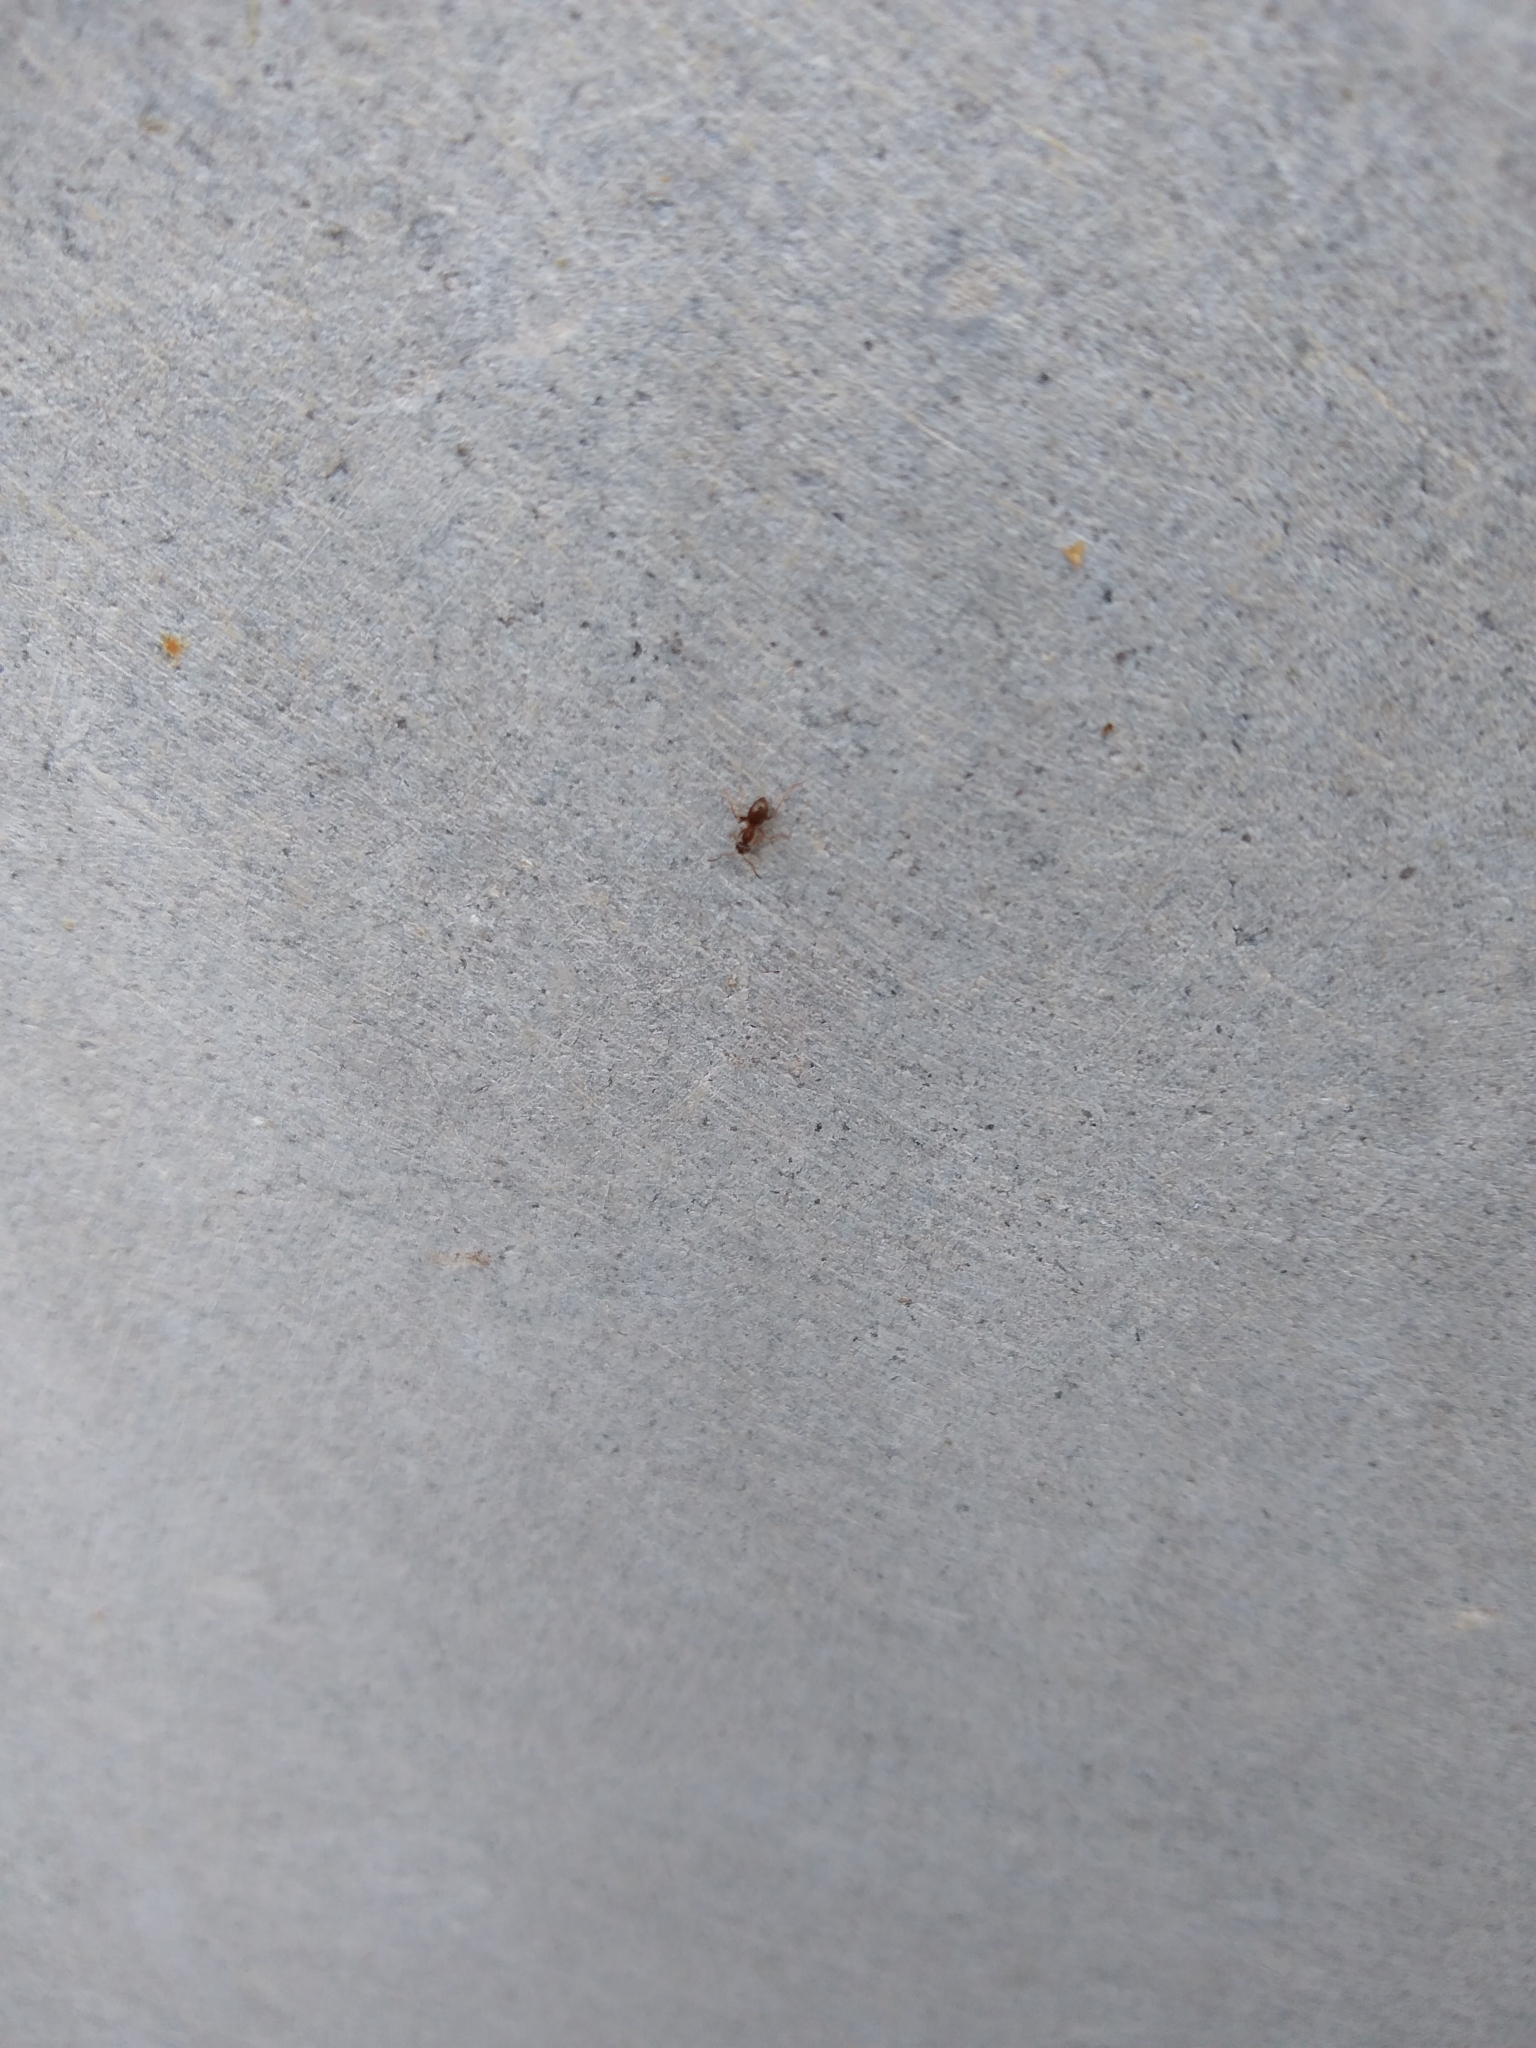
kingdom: Animalia
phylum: Arthropoda
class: Insecta
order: Hymenoptera
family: Formicidae
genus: Lasius
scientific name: Lasius neoniger
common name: Turfgrass ant
